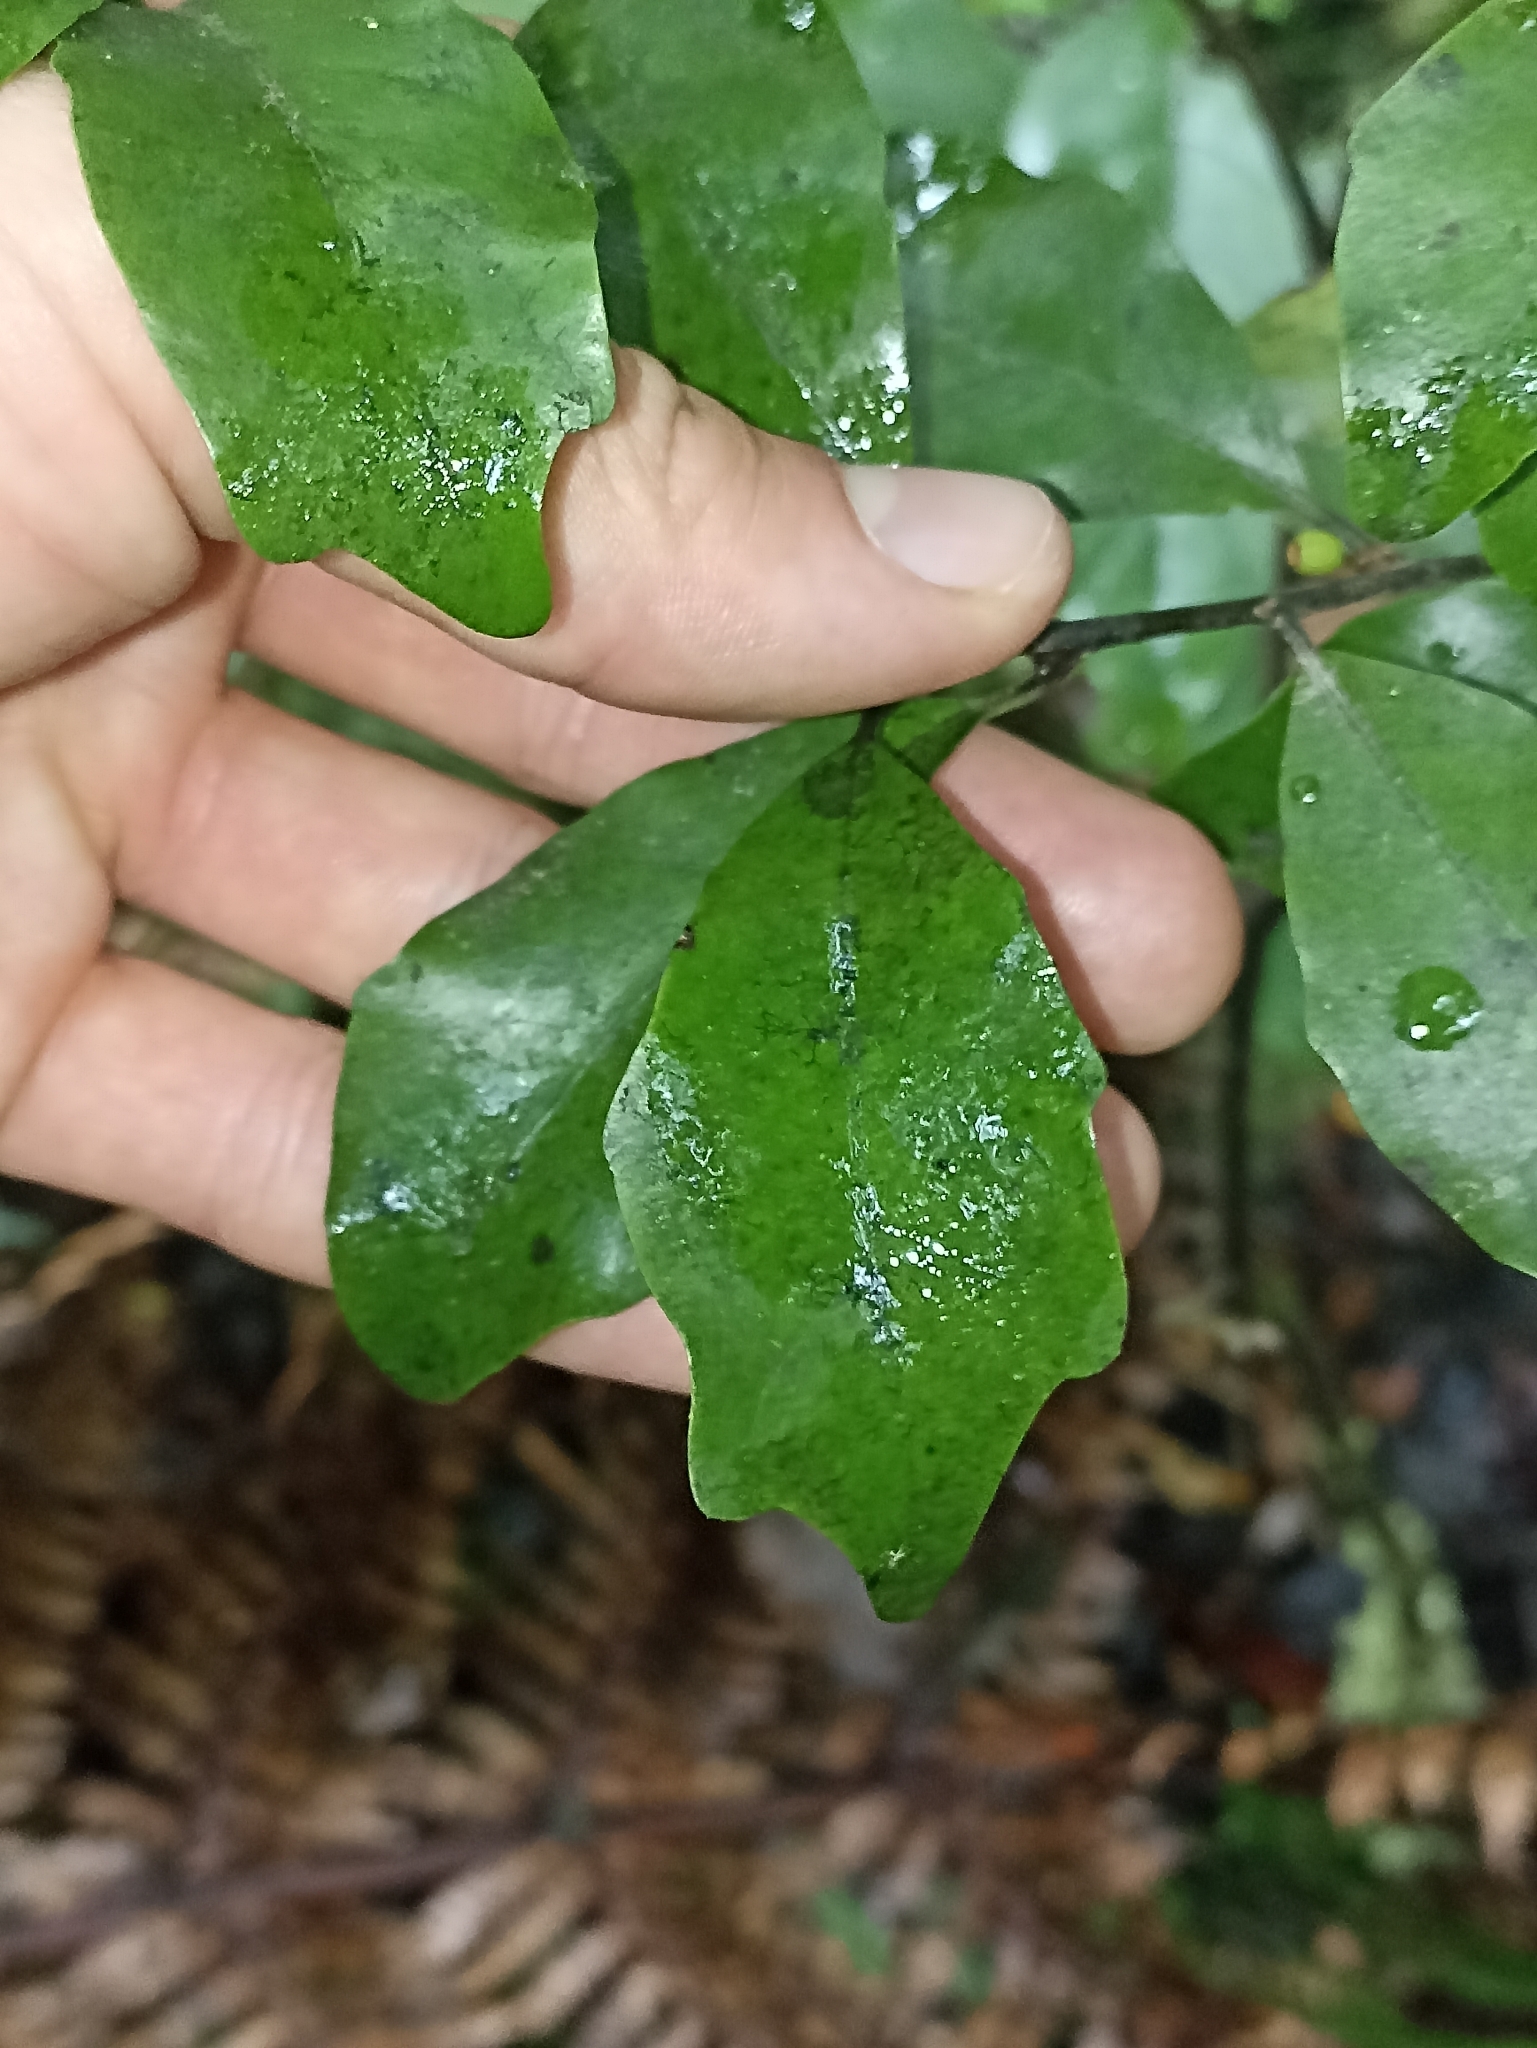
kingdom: Plantae
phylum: Tracheophyta
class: Magnoliopsida
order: Asterales
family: Alseuosmiaceae
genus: Alseuosmia
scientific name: Alseuosmia quercifolia
